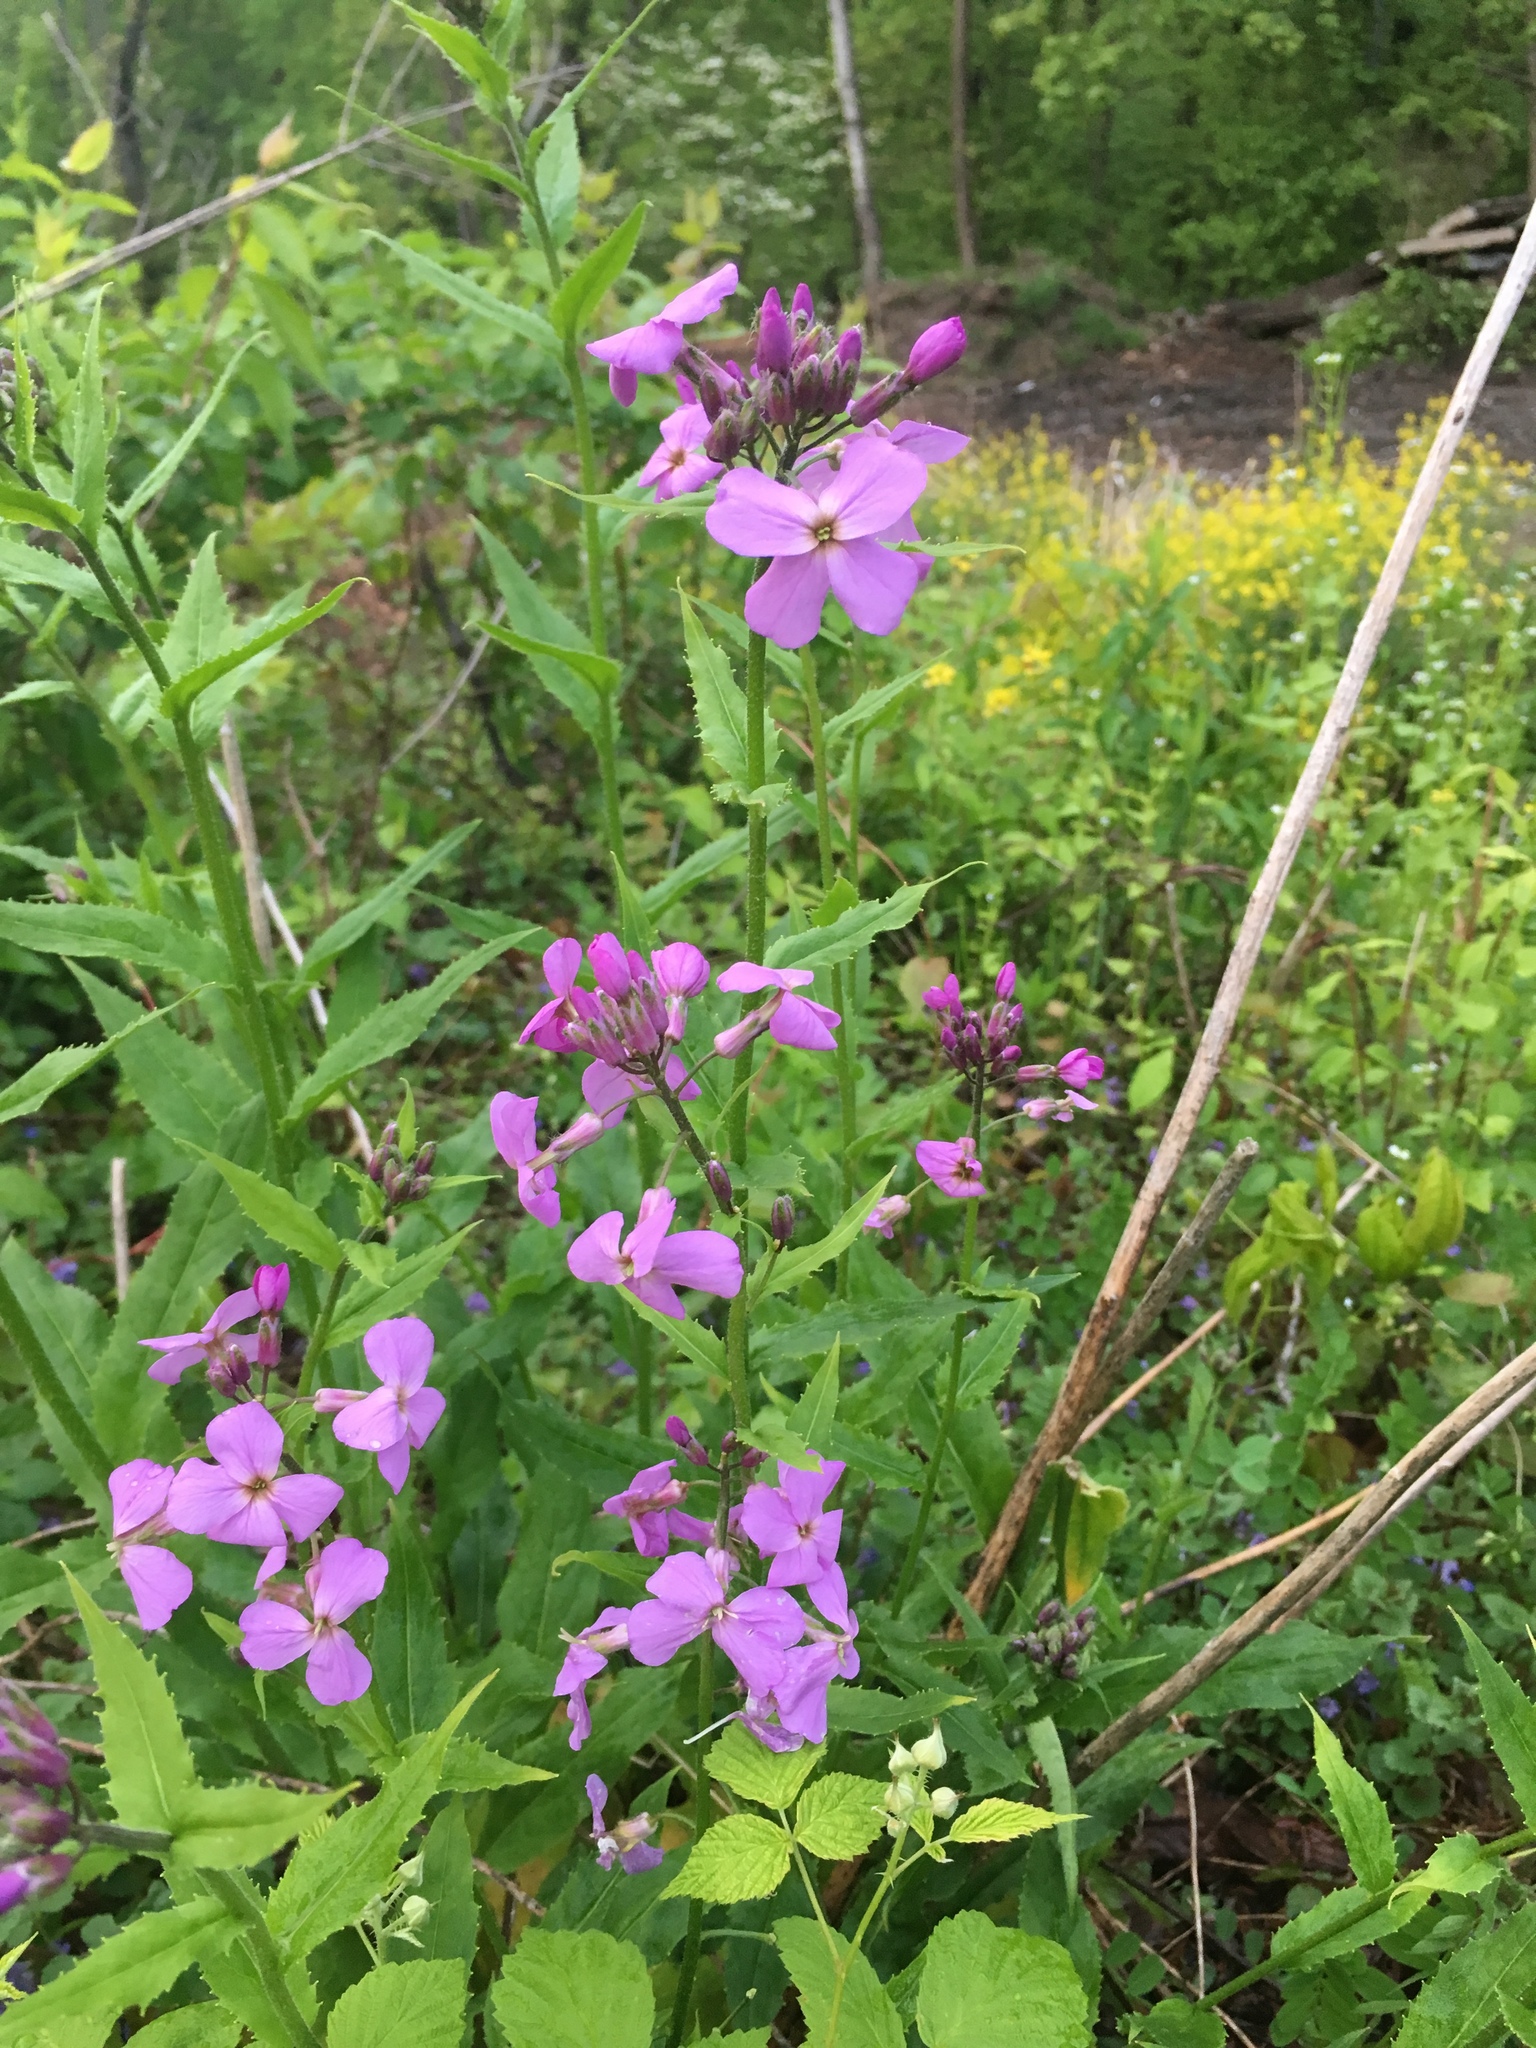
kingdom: Plantae
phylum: Tracheophyta
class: Magnoliopsida
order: Brassicales
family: Brassicaceae
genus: Hesperis
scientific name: Hesperis matronalis
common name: Dame's-violet
